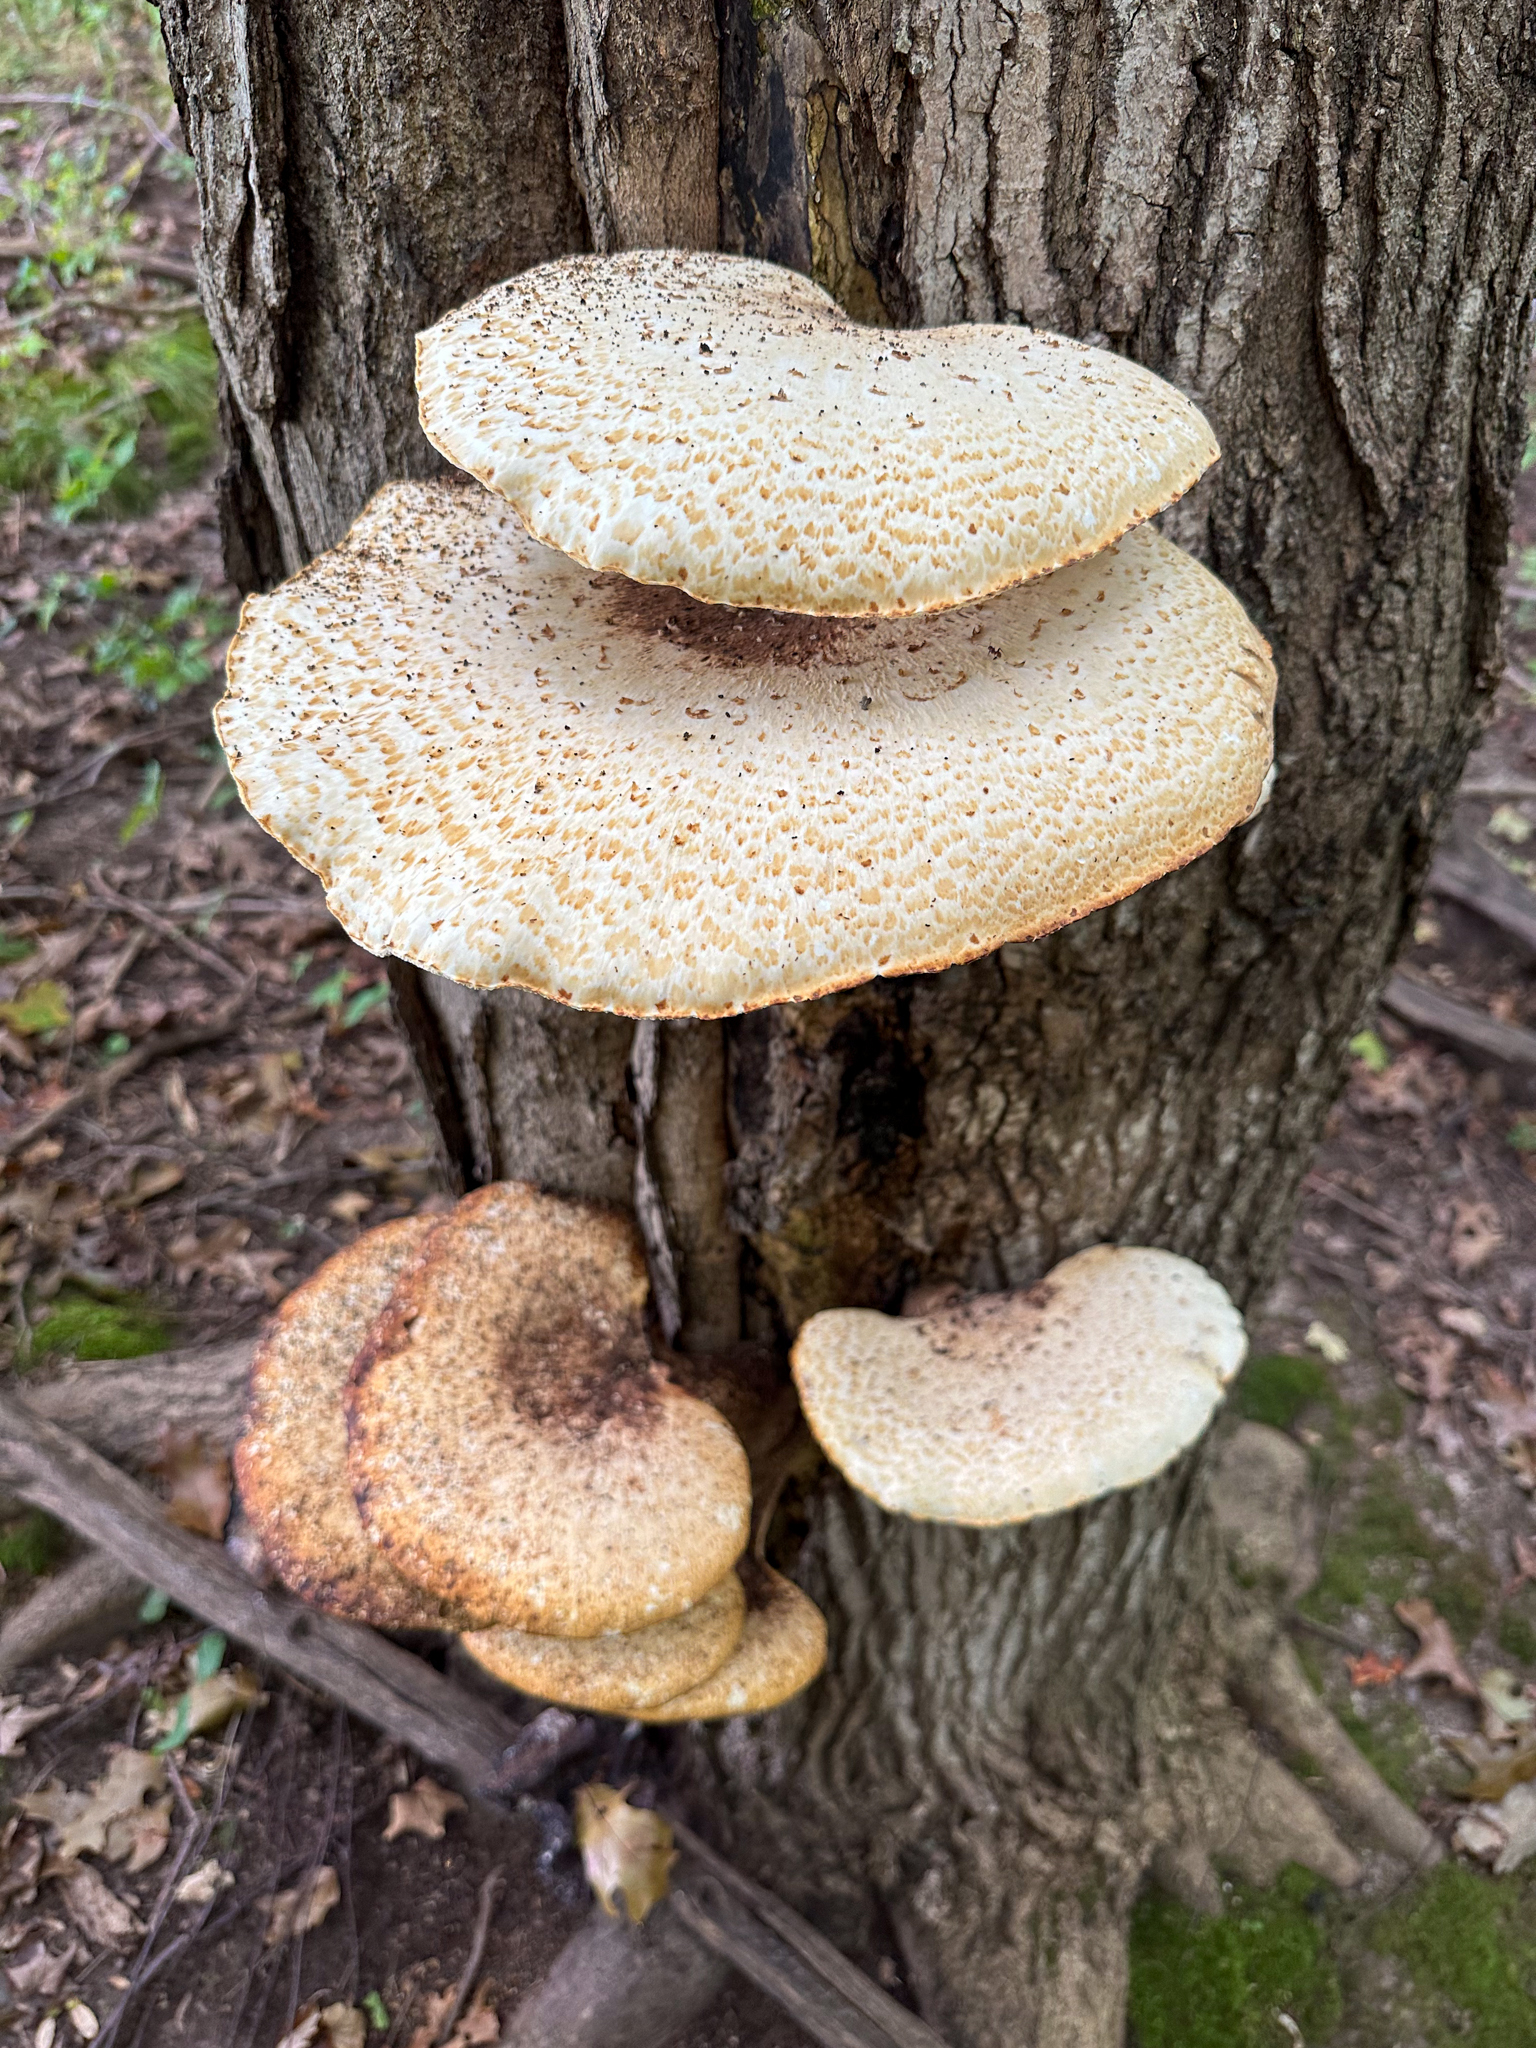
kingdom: Fungi
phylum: Basidiomycota
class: Agaricomycetes
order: Polyporales
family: Polyporaceae
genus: Cerioporus
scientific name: Cerioporus squamosus
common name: Dryad's saddle
